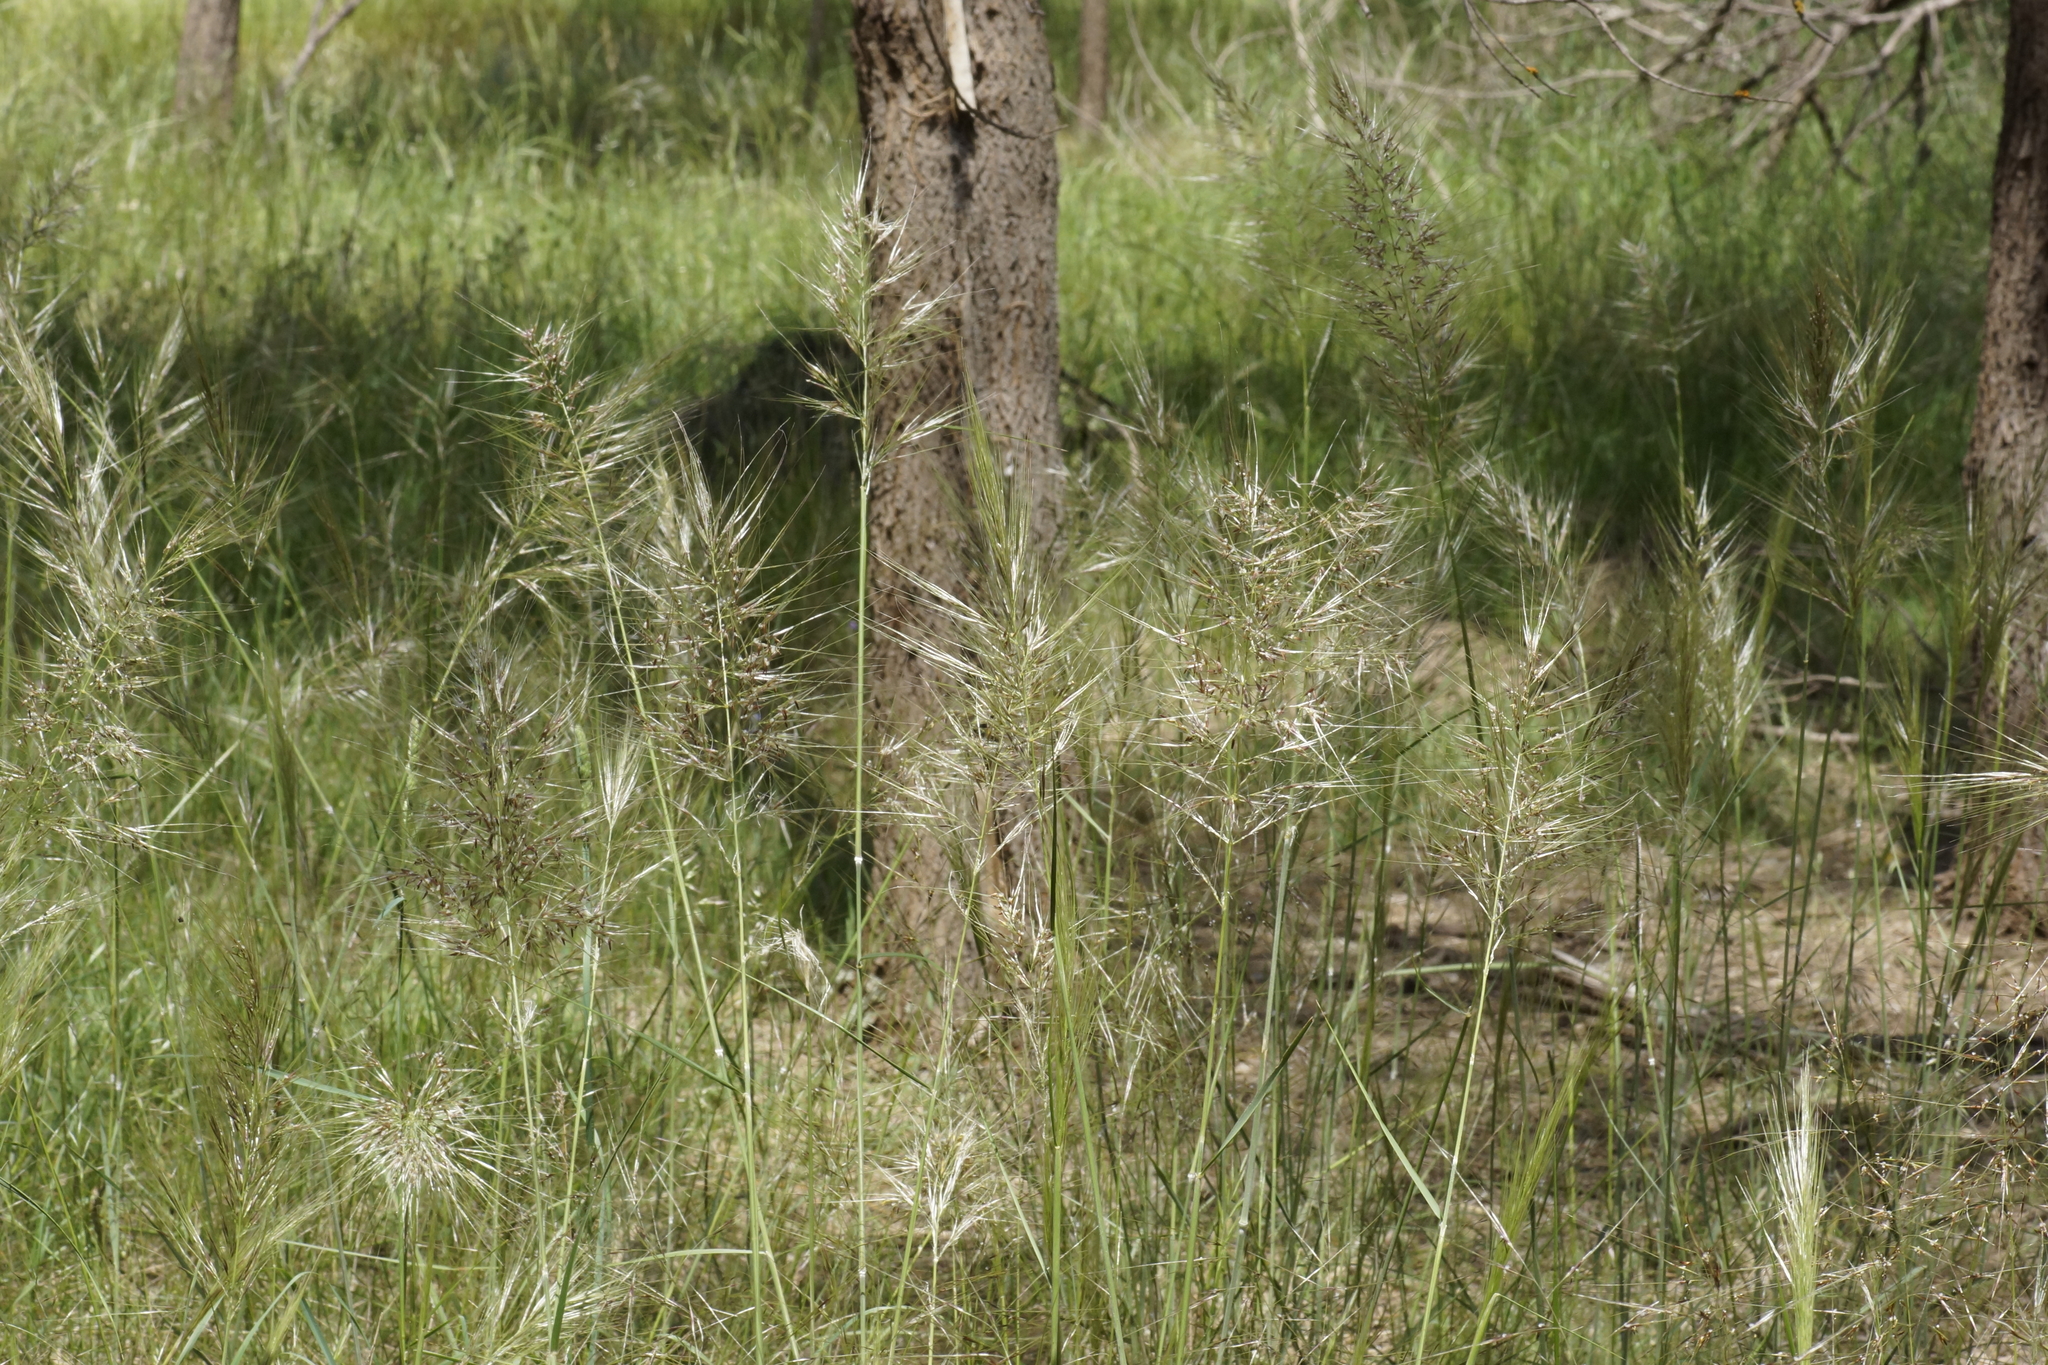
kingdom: Plantae
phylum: Tracheophyta
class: Liliopsida
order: Poales
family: Poaceae
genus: Austrostipa
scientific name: Austrostipa mollis
